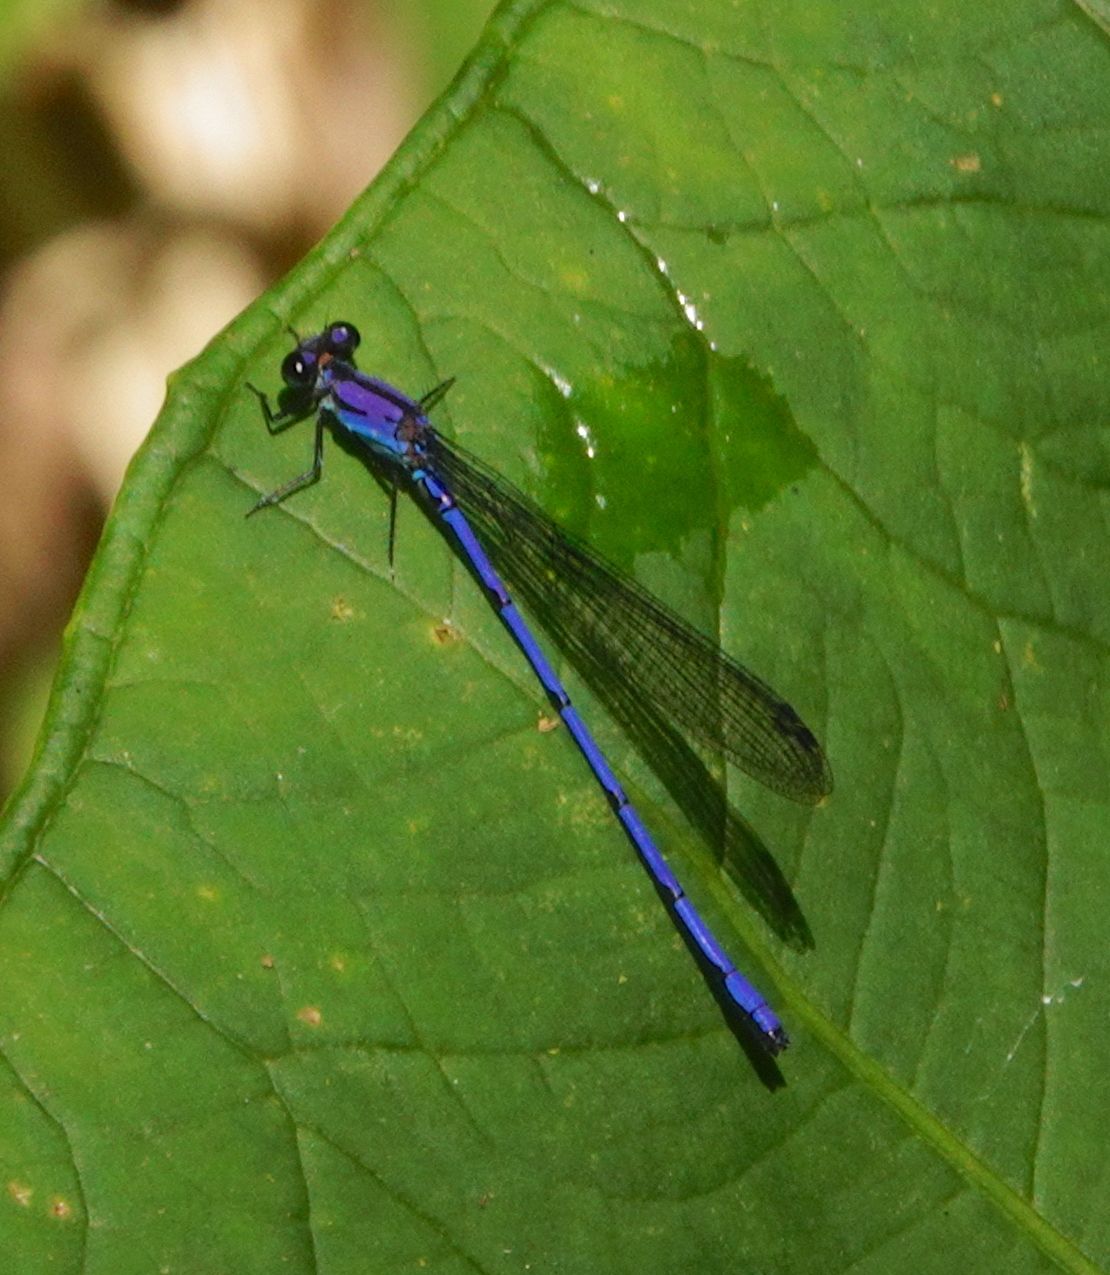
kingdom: Animalia
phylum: Arthropoda
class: Insecta
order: Odonata
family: Coenagrionidae
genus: Argia
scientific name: Argia medullaris
